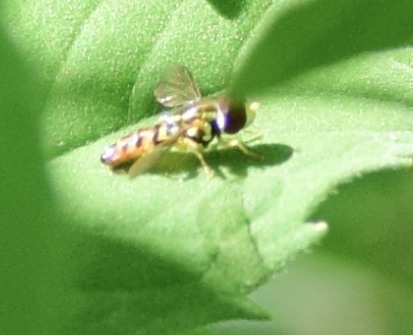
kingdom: Animalia
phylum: Arthropoda
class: Insecta
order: Diptera
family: Syrphidae
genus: Toxomerus
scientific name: Toxomerus geminatus
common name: Eastern calligrapher
